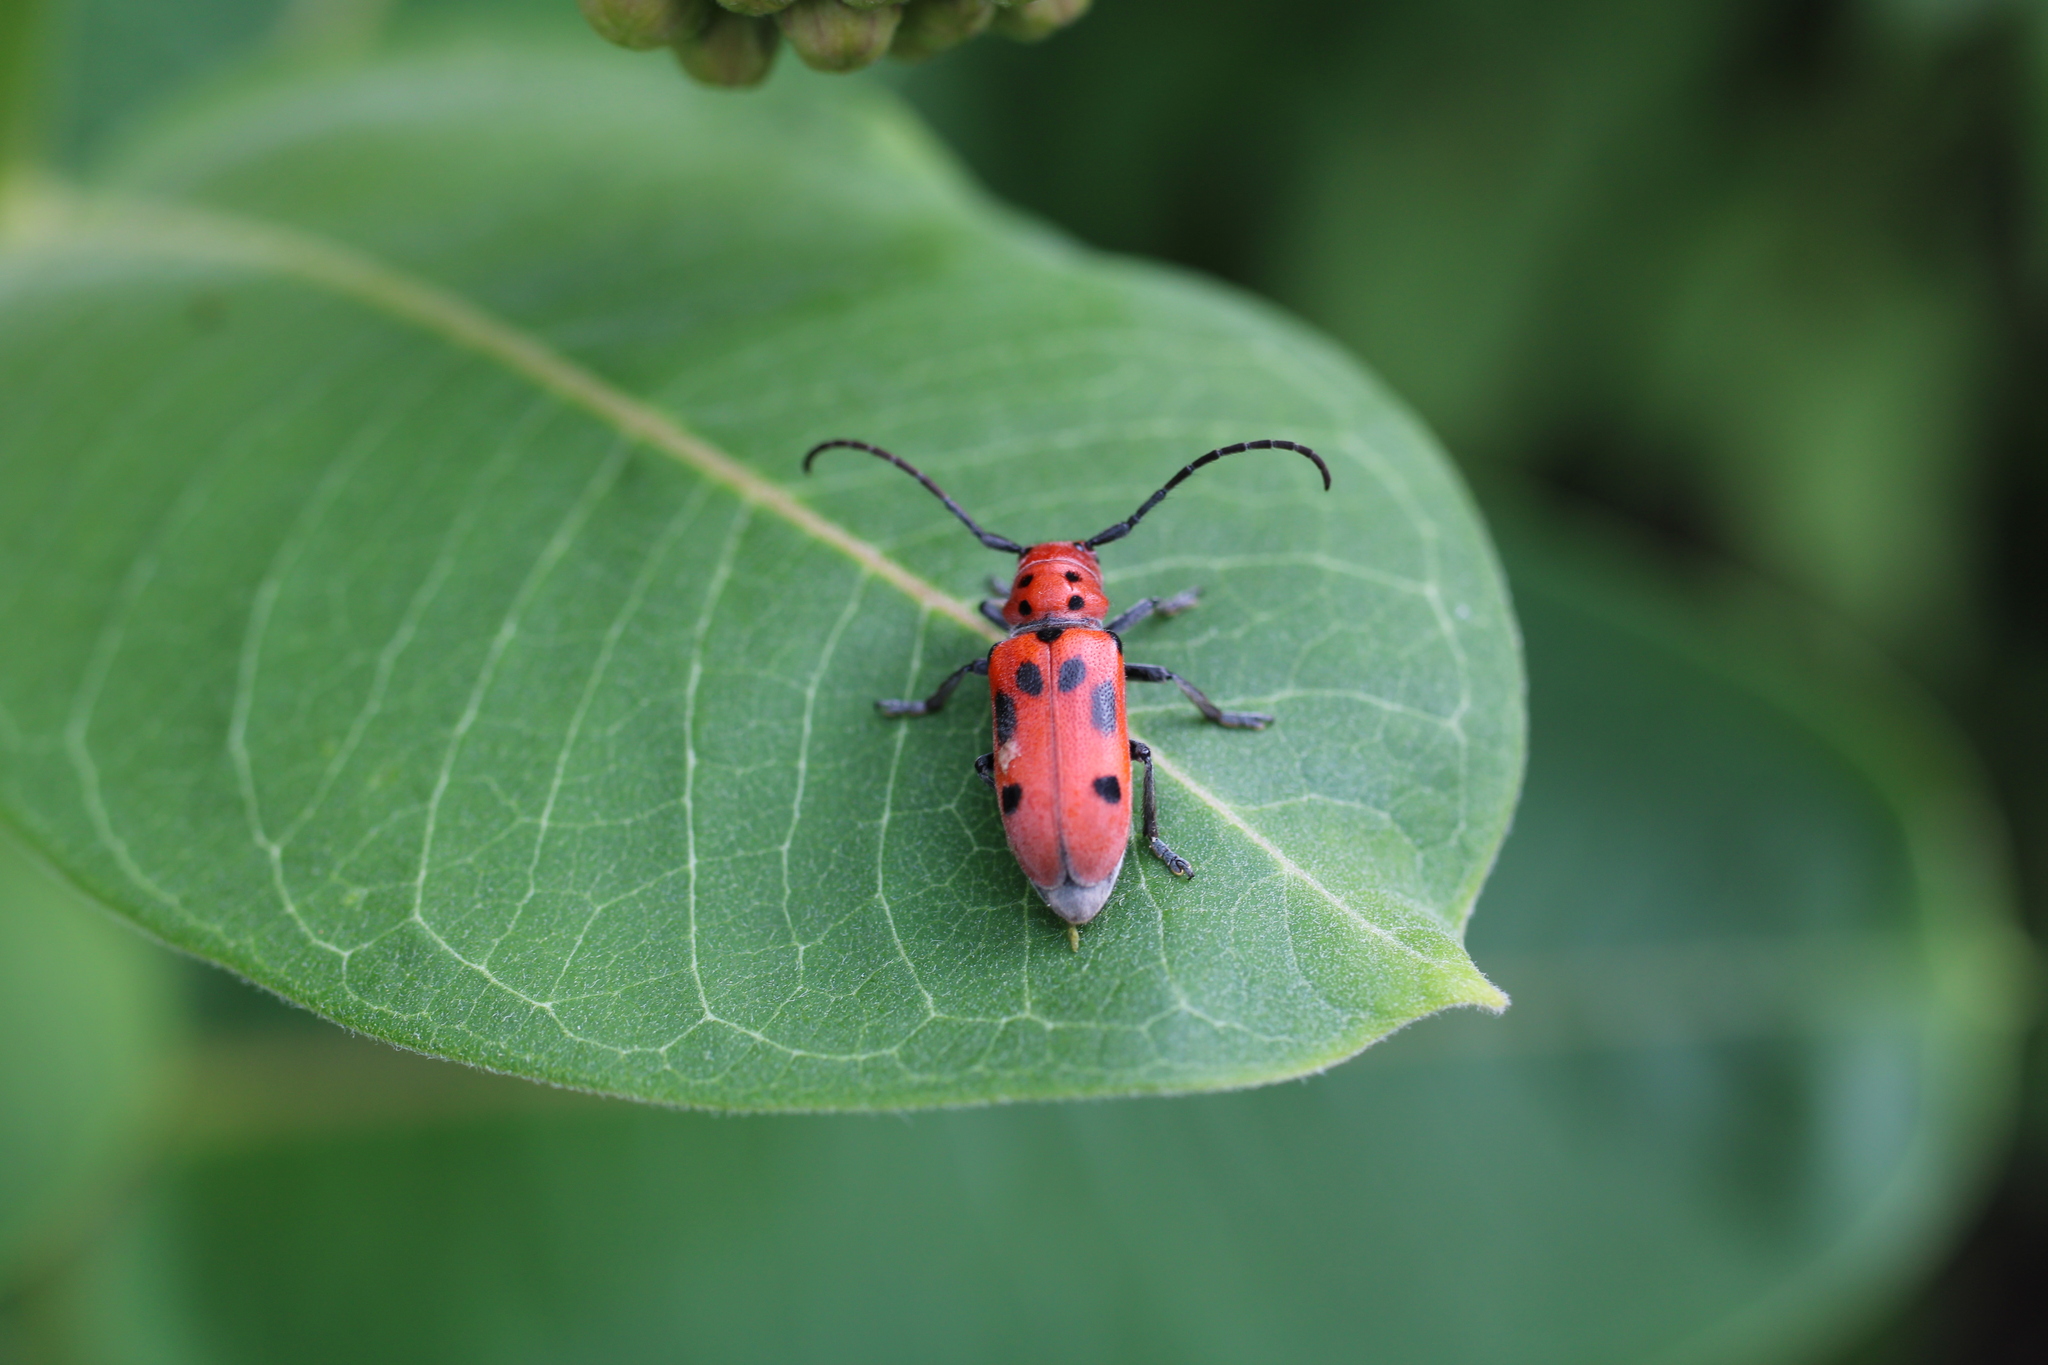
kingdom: Animalia
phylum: Arthropoda
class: Insecta
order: Coleoptera
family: Cerambycidae
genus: Tetraopes
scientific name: Tetraopes tetrophthalmus
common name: Red milkweed beetle
